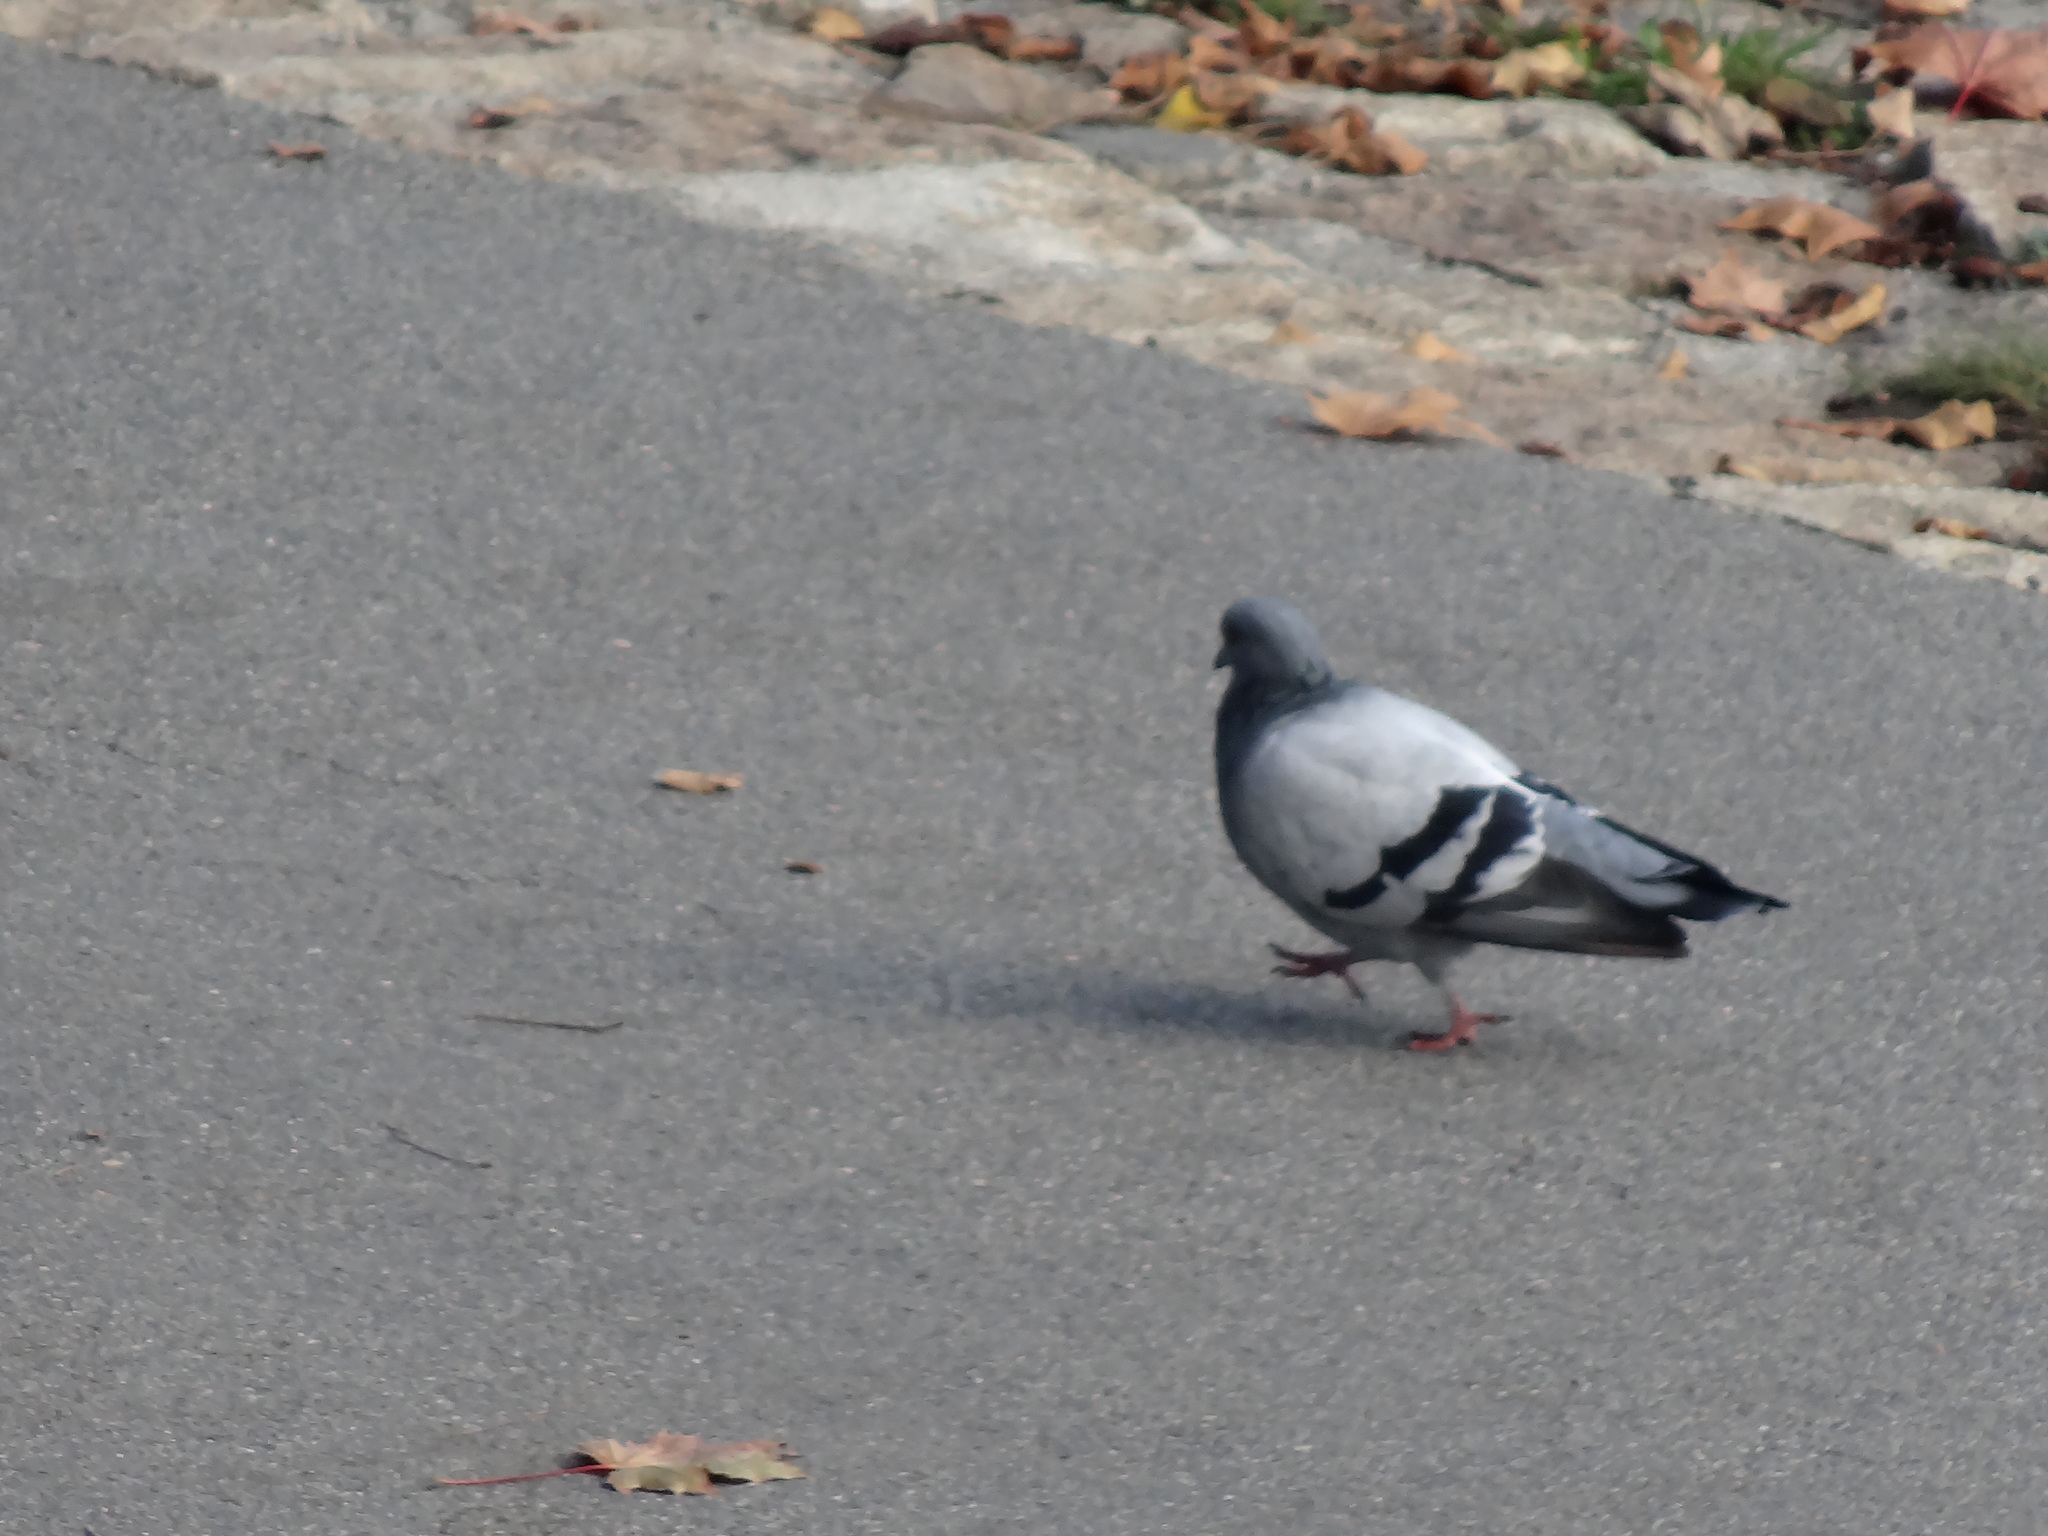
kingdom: Animalia
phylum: Chordata
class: Aves
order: Columbiformes
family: Columbidae
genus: Columba
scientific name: Columba livia
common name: Rock pigeon
